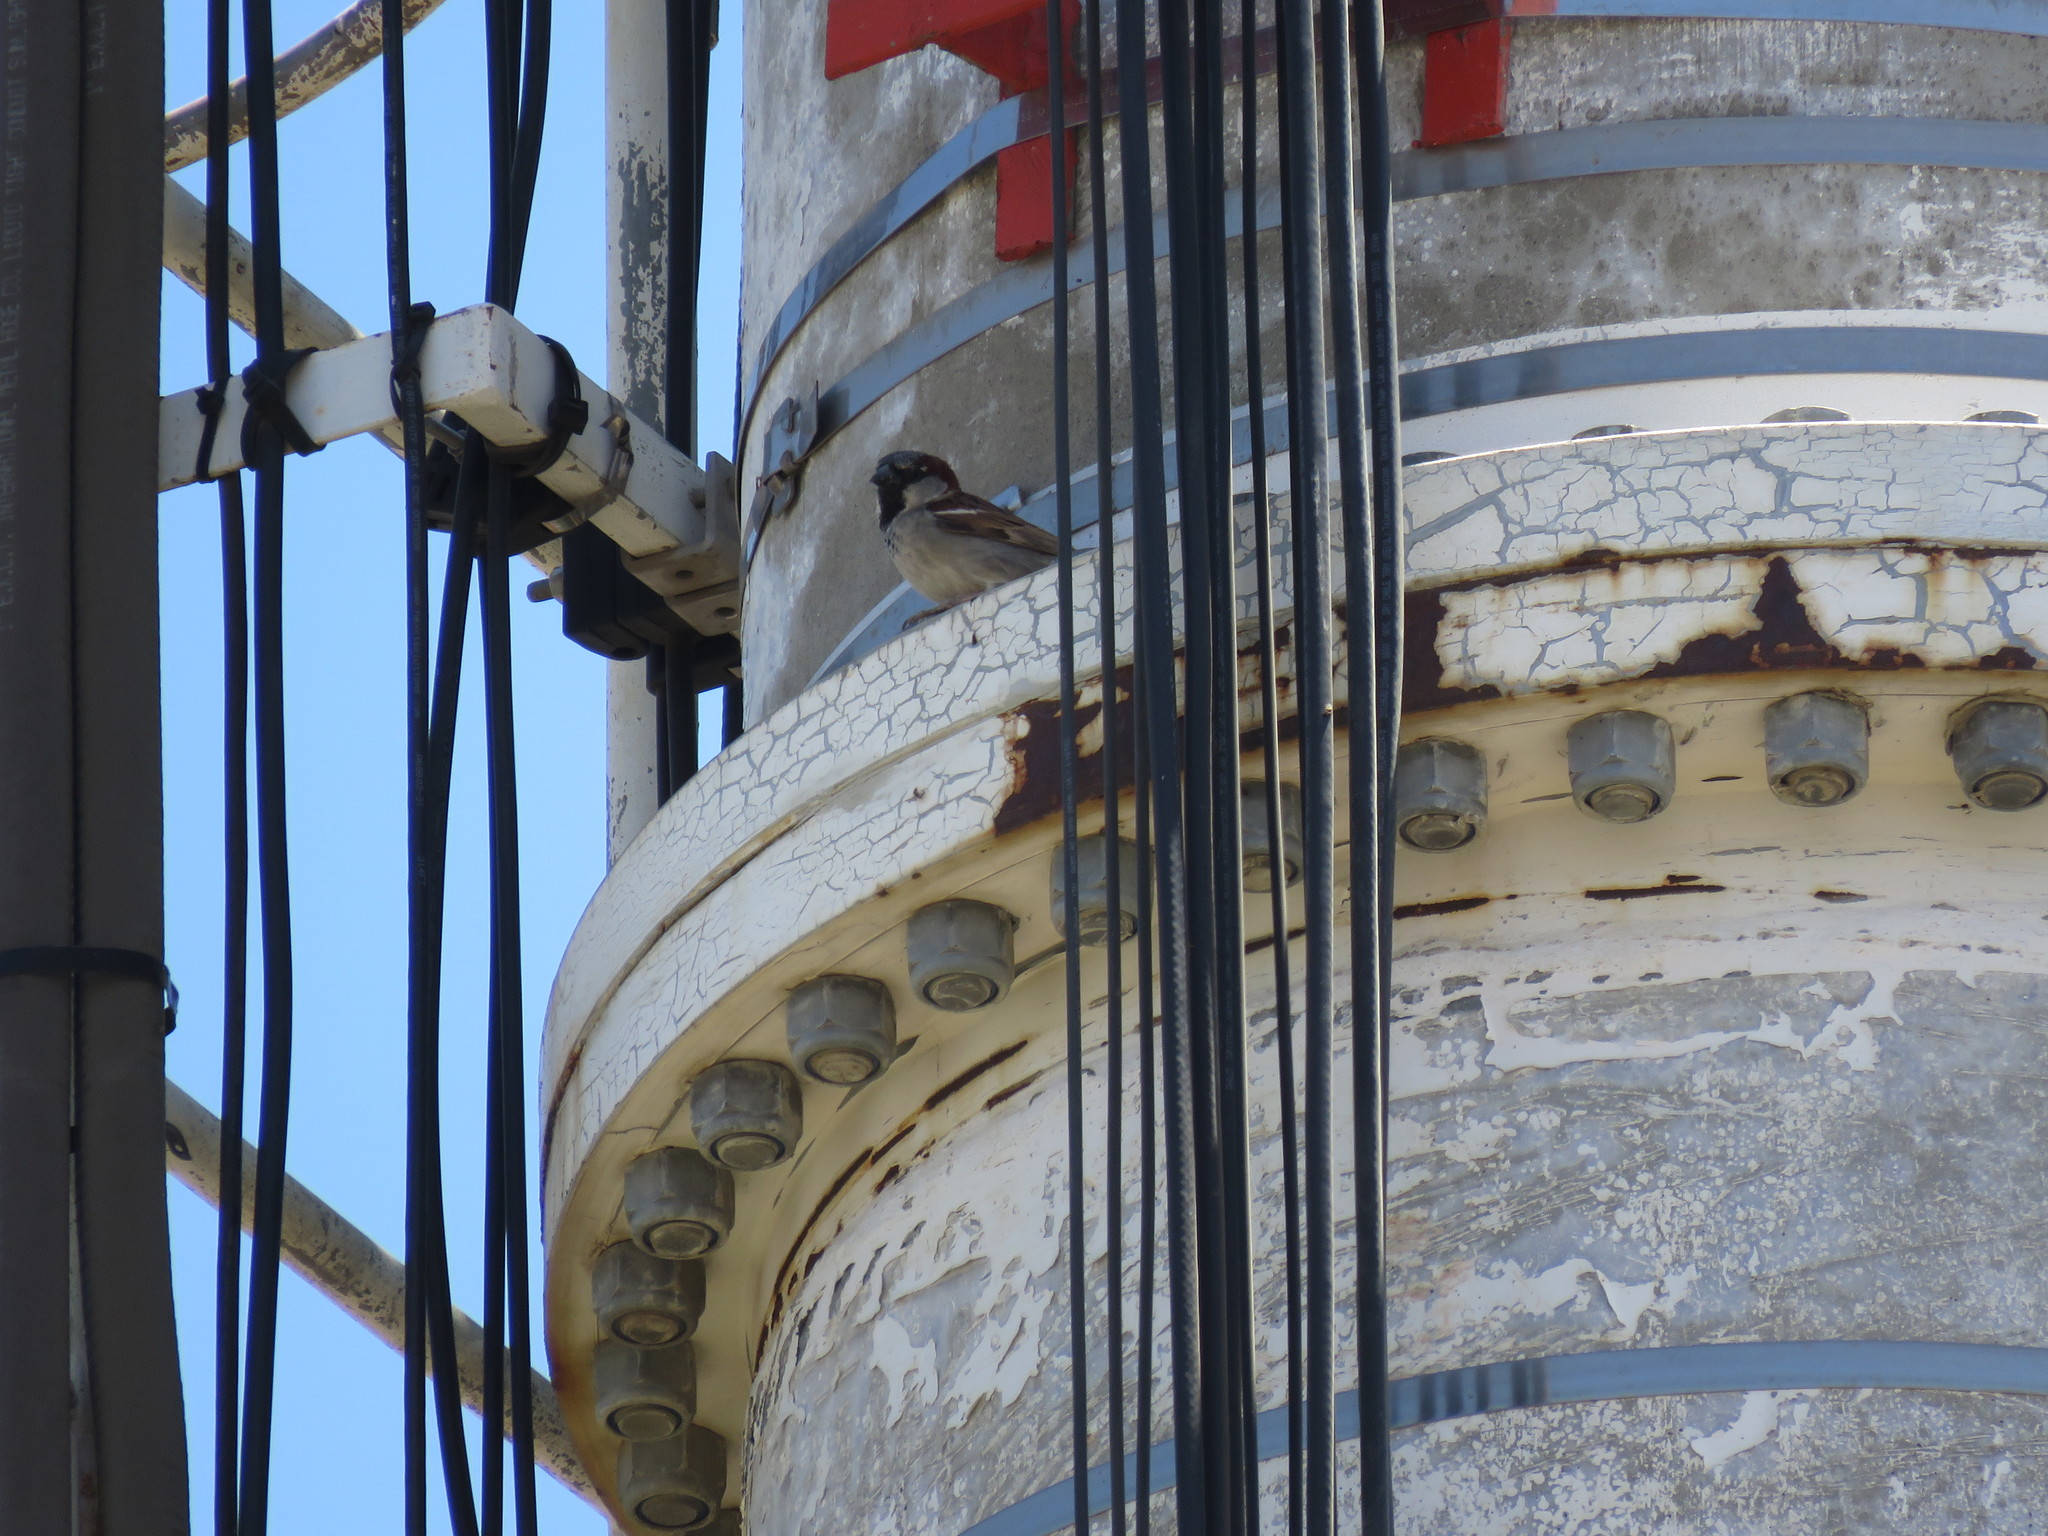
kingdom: Animalia
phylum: Chordata
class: Aves
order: Passeriformes
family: Passeridae
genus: Passer
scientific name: Passer domesticus
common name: House sparrow
